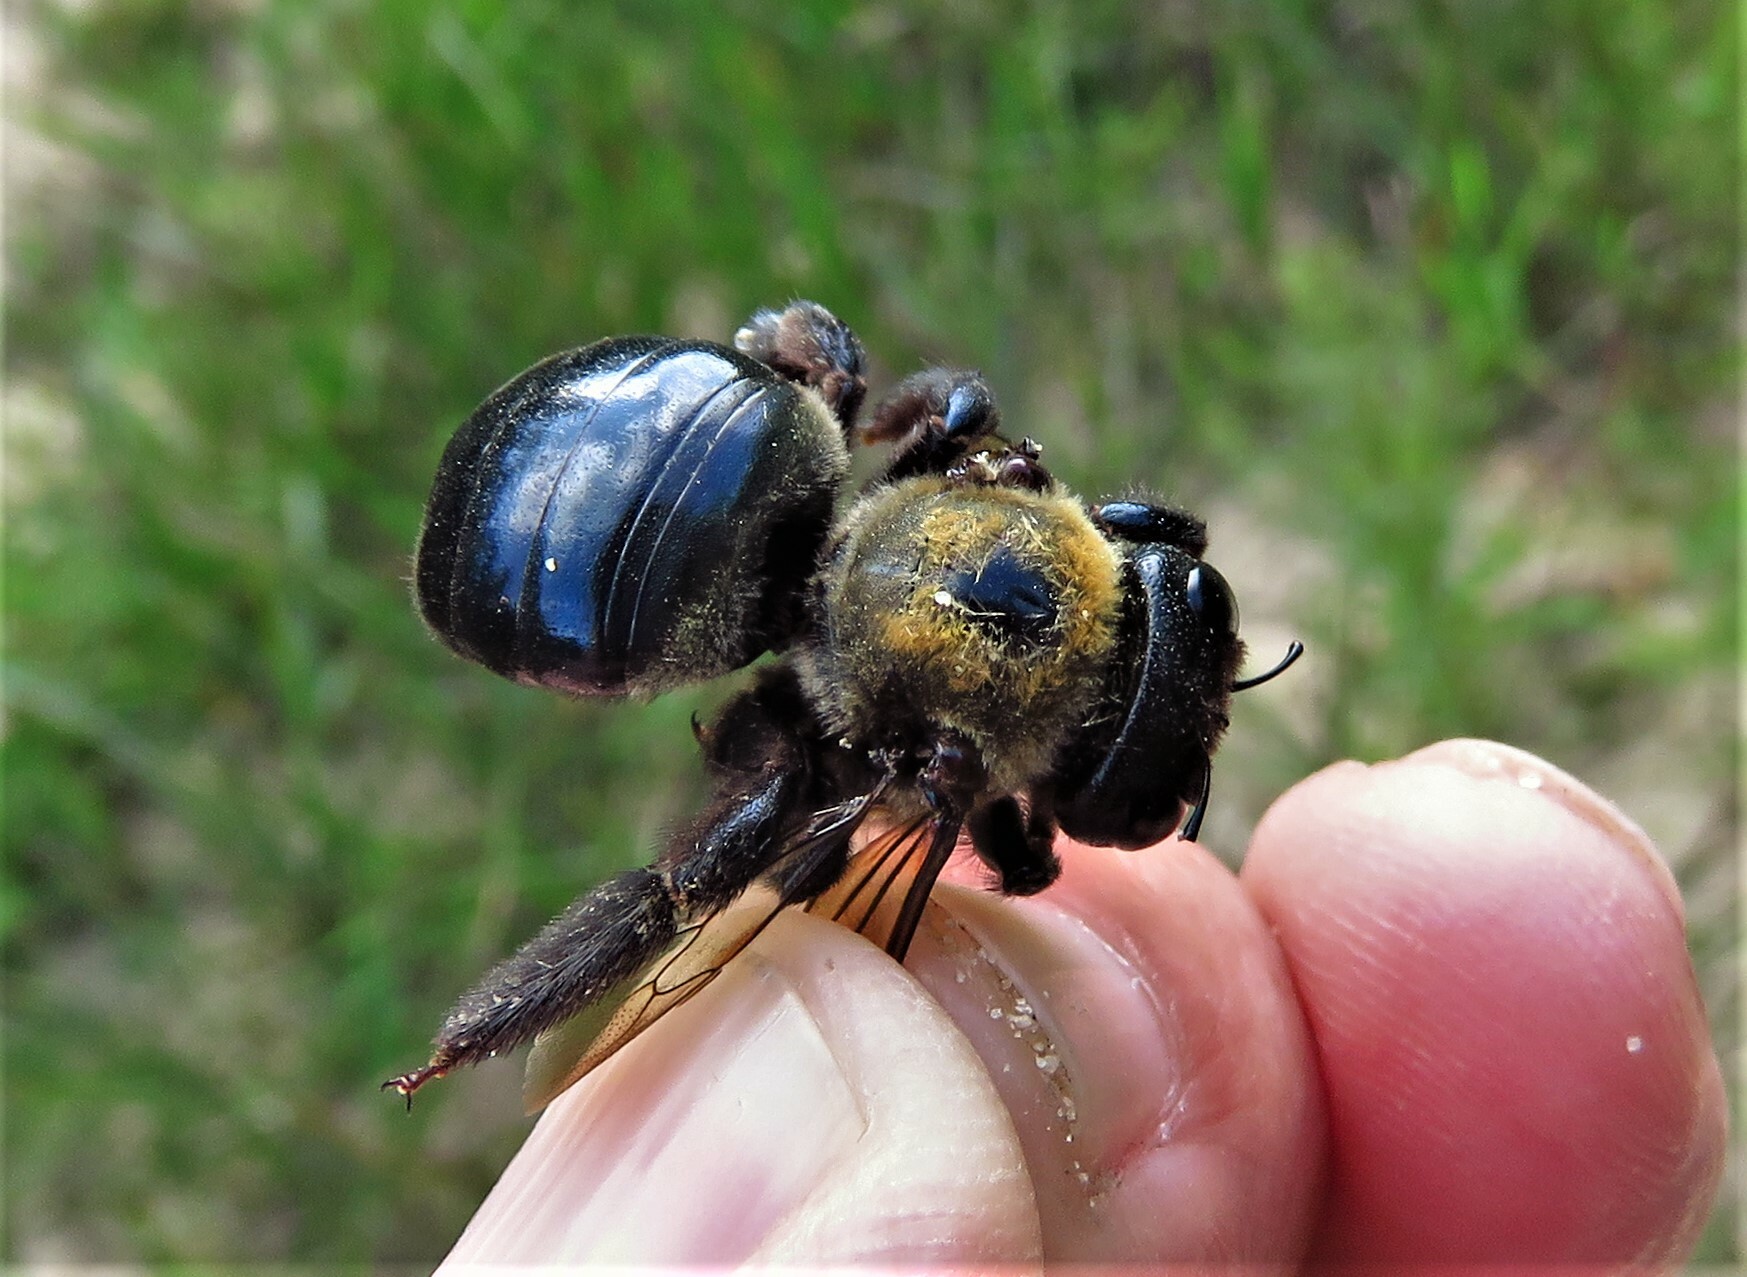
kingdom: Animalia
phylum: Arthropoda
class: Insecta
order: Hymenoptera
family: Apidae
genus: Xylocopa
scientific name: Xylocopa virginica
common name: Carpenter bee
